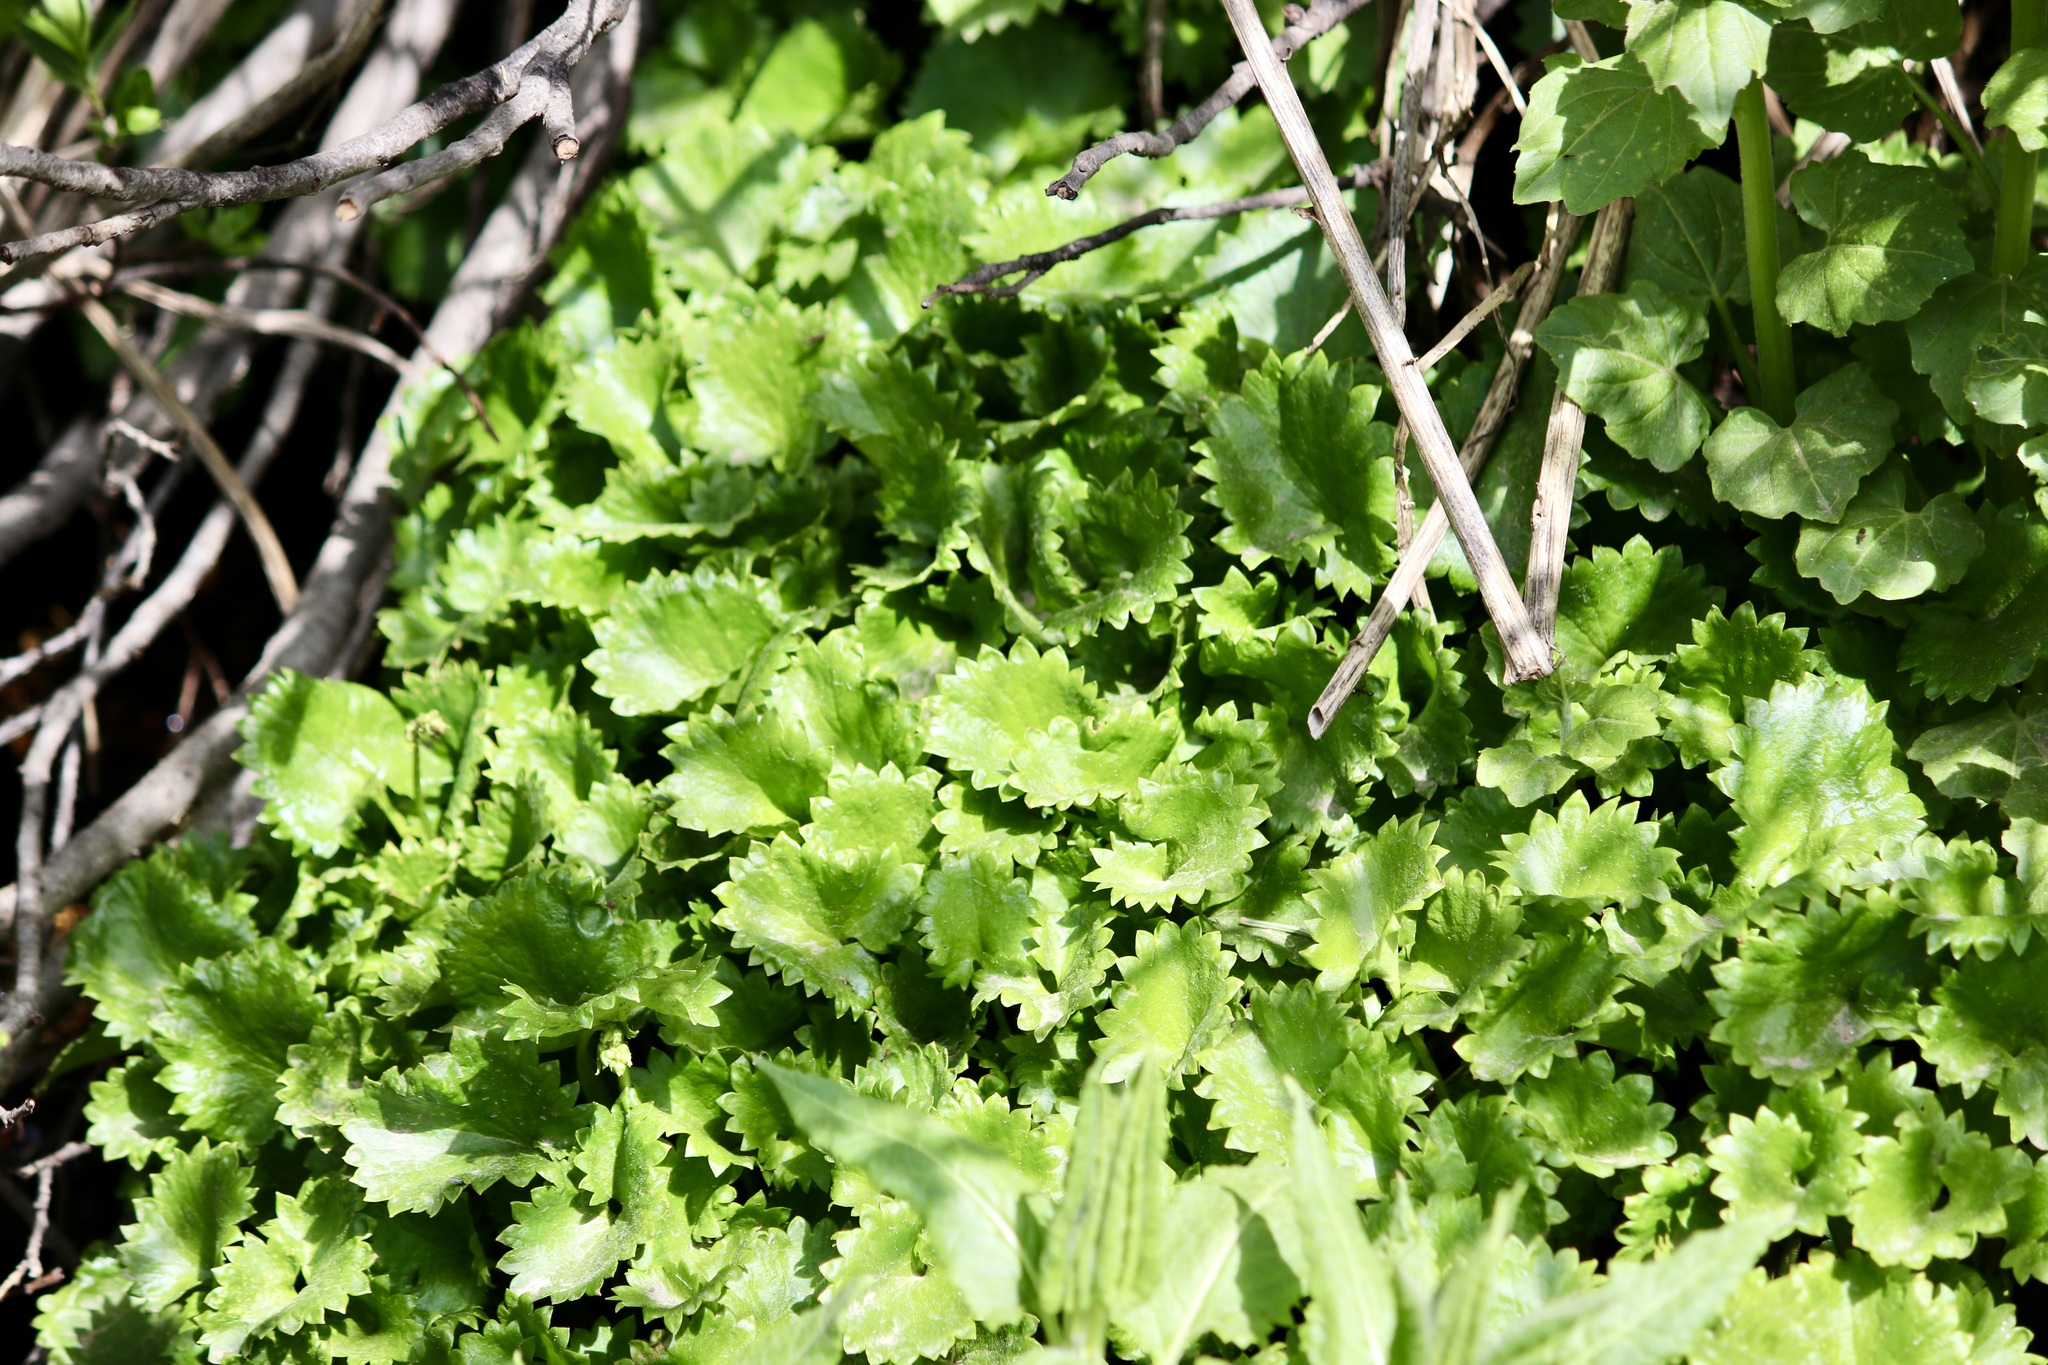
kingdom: Plantae
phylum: Tracheophyta
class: Magnoliopsida
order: Saxifragales
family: Saxifragaceae
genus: Micranthes
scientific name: Micranthes odontoloma
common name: Brook saxifrage
